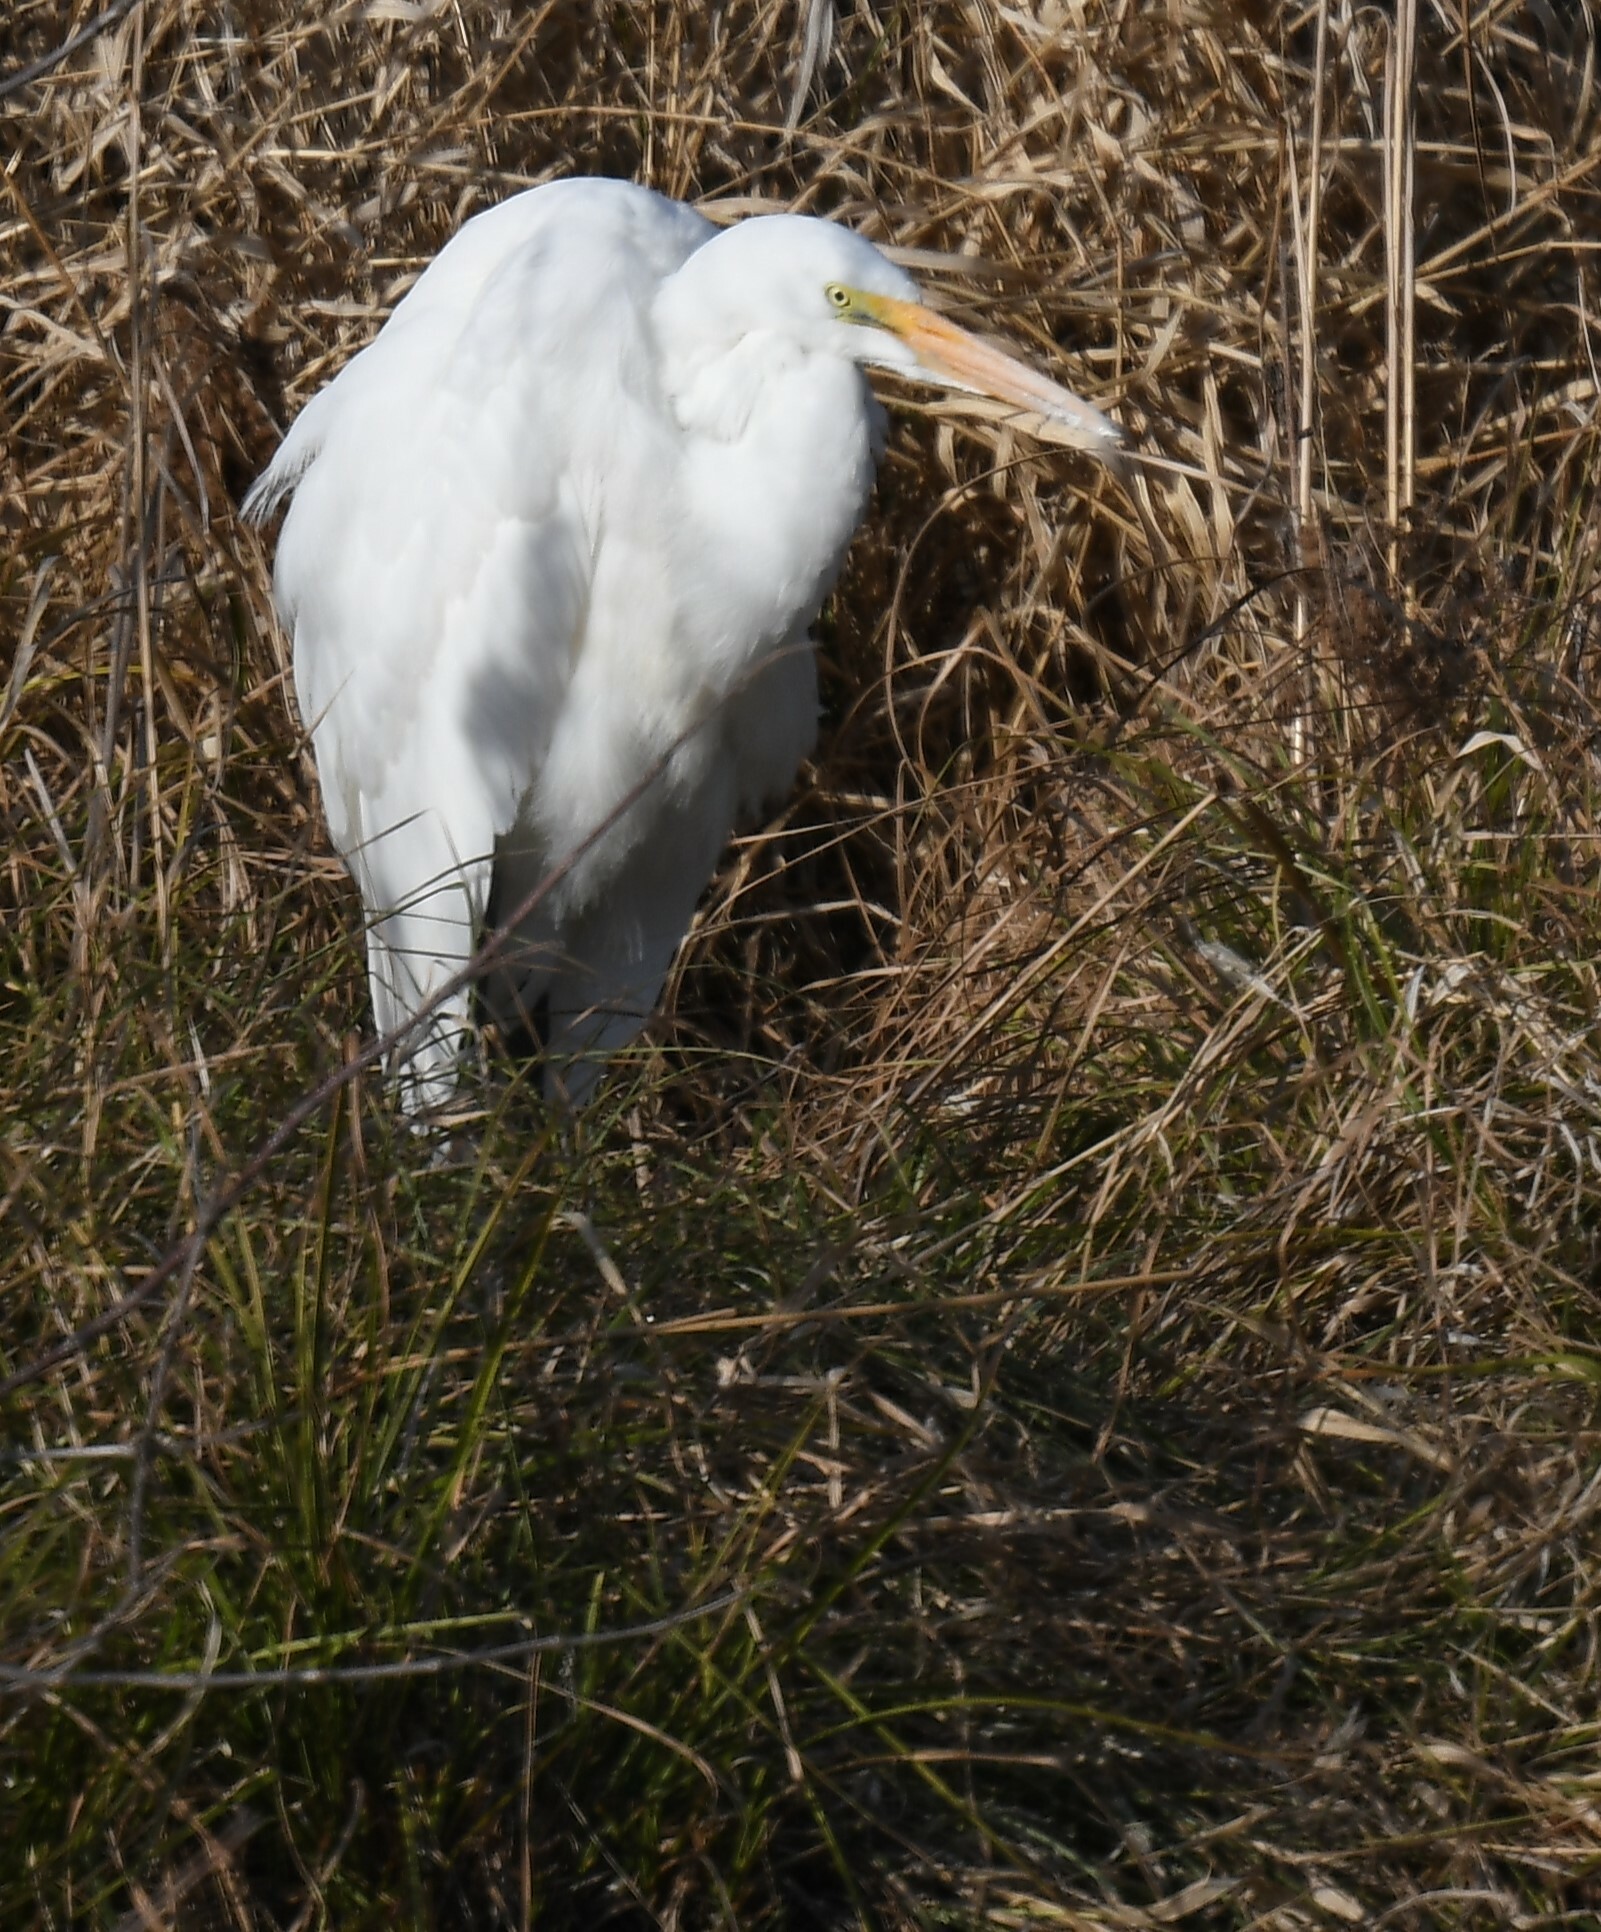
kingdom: Animalia
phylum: Chordata
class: Aves
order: Pelecaniformes
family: Ardeidae
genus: Ardea
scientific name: Ardea alba
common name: Great egret
